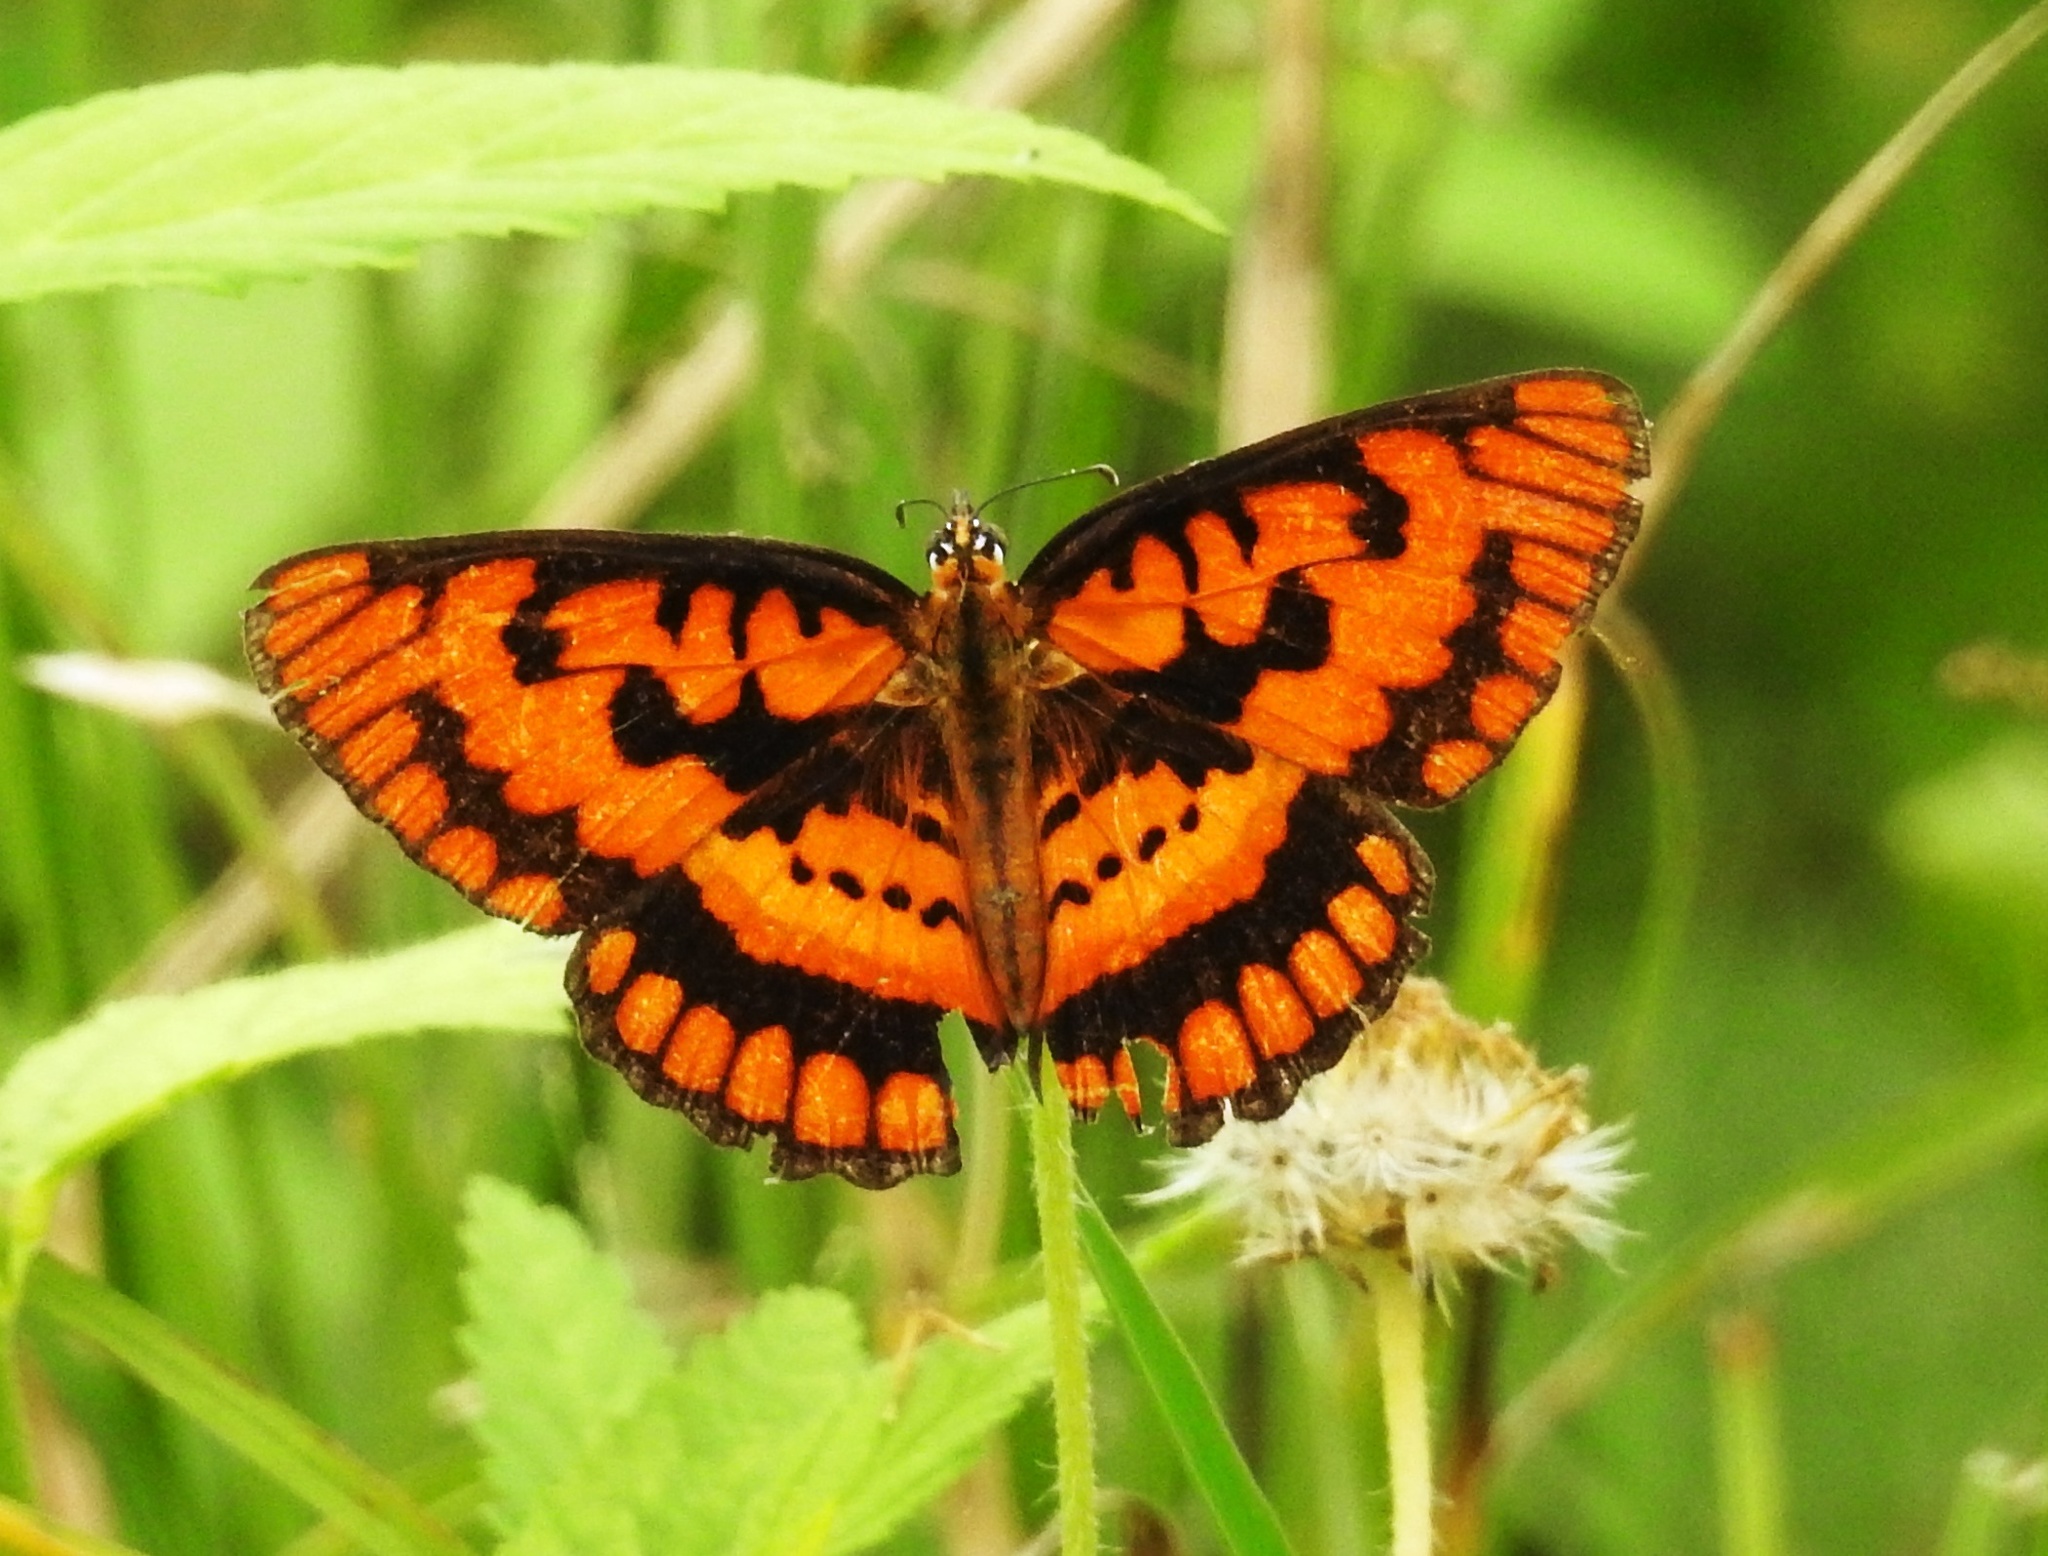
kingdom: Animalia
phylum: Arthropoda
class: Insecta
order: Lepidoptera
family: Nymphalidae
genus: Byblia
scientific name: Byblia ilithyia
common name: Spotted joker
